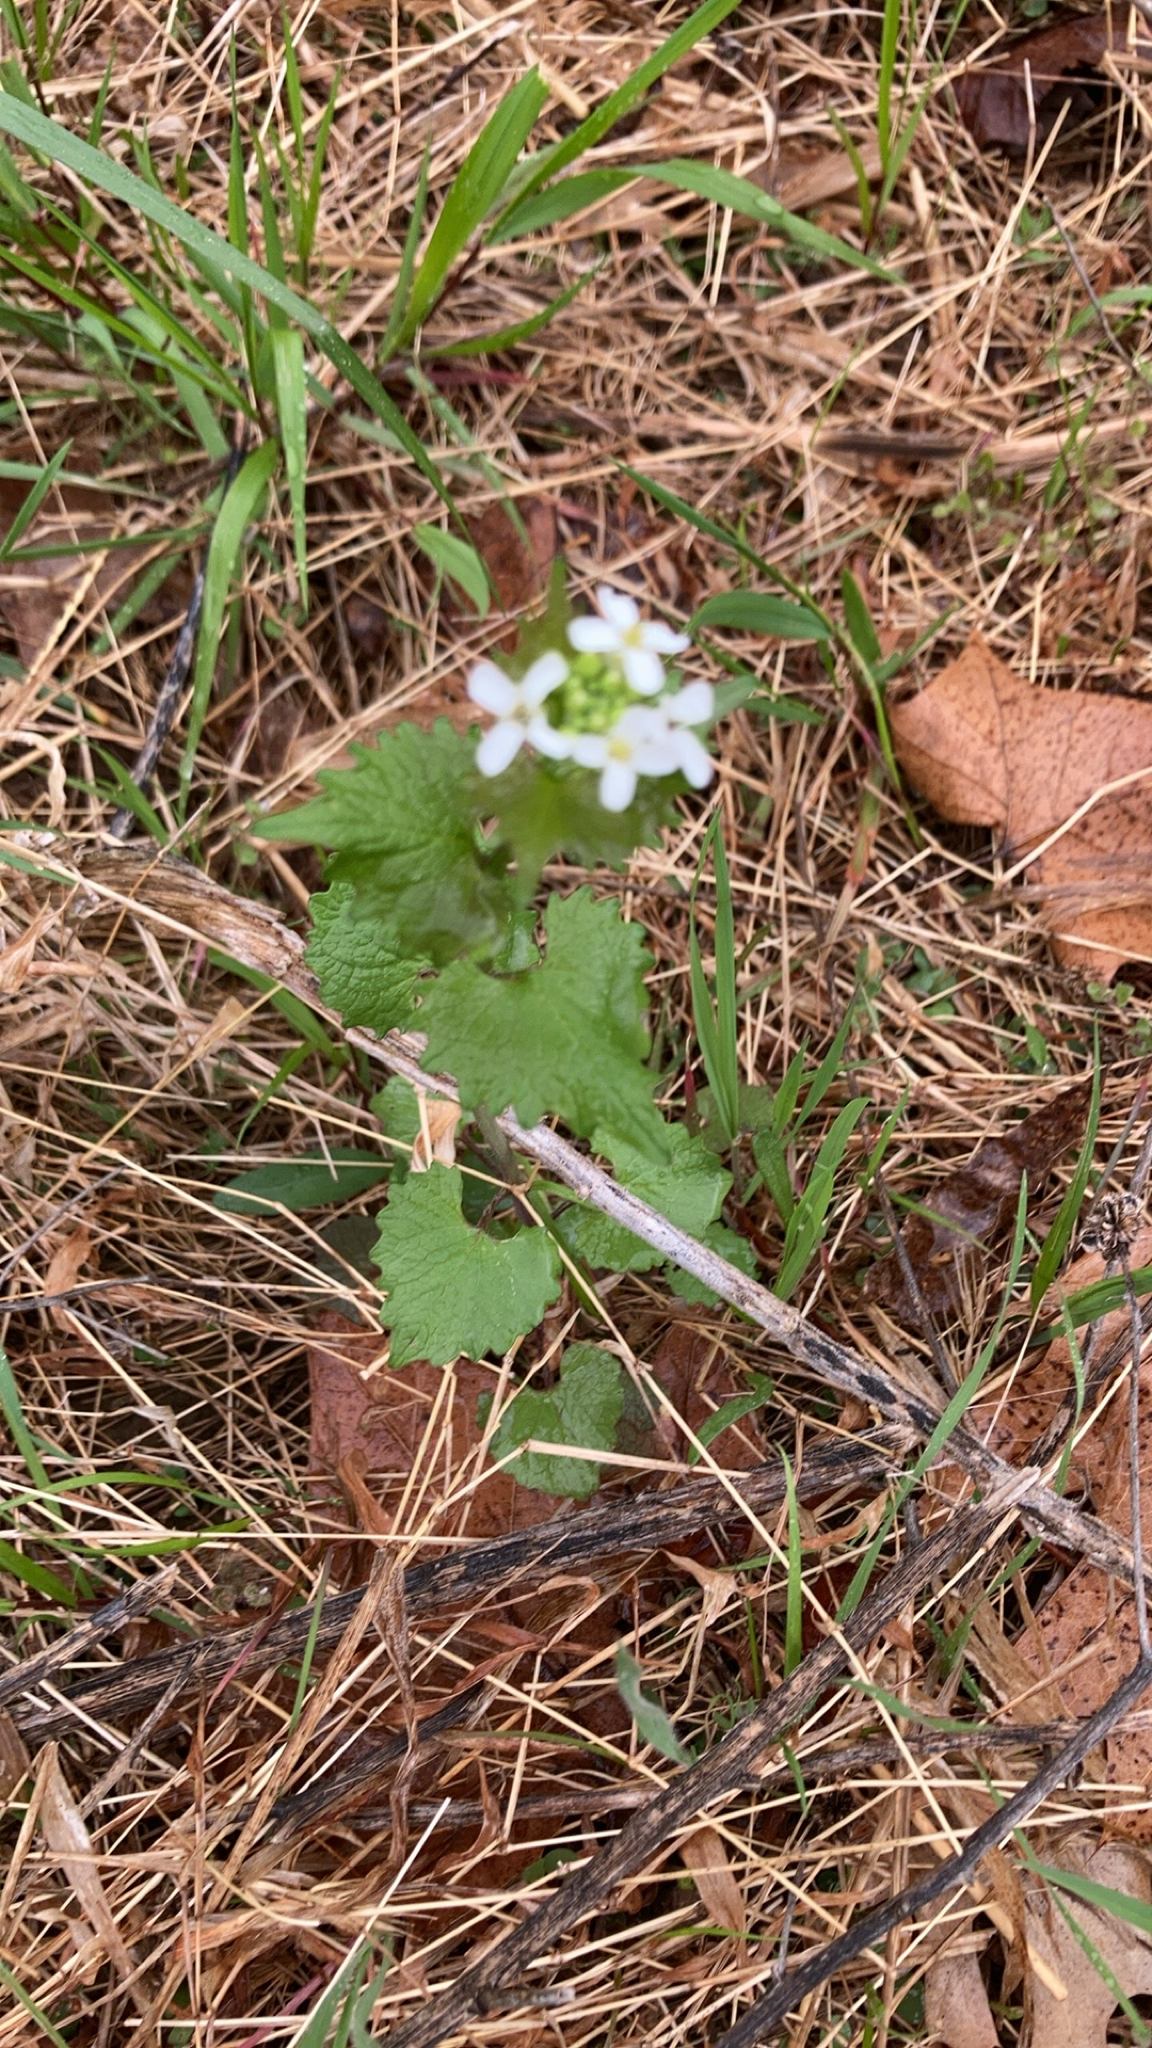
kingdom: Plantae
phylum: Tracheophyta
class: Magnoliopsida
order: Brassicales
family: Brassicaceae
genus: Alliaria
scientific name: Alliaria petiolata
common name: Garlic mustard
